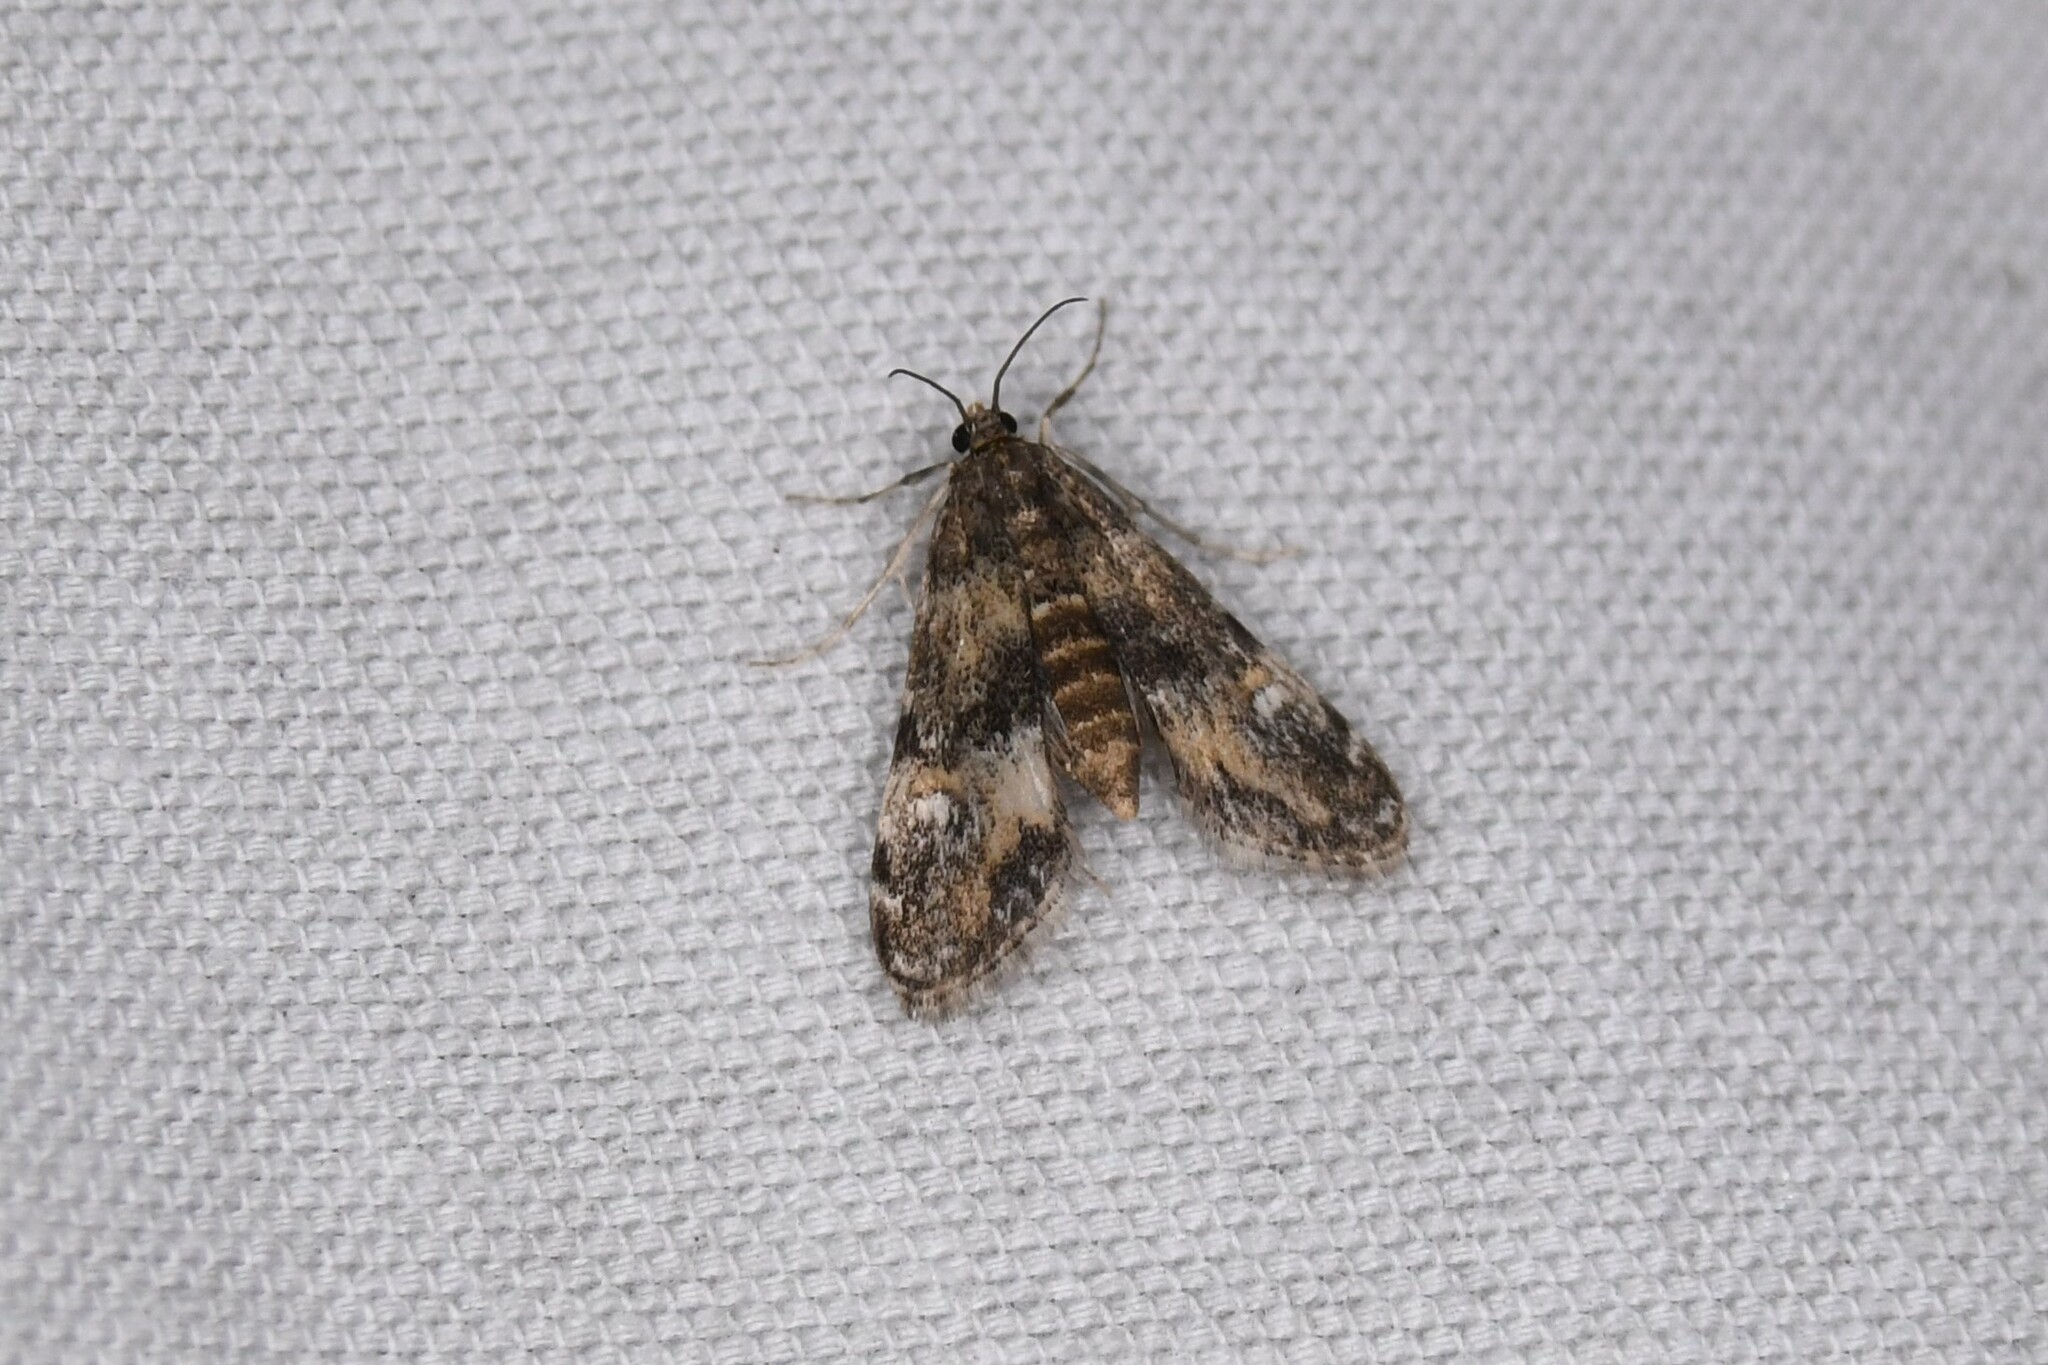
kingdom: Animalia
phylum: Arthropoda
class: Insecta
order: Lepidoptera
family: Crambidae
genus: Elophila
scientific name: Elophila obliteralis
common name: Waterlily leafcutter moth
